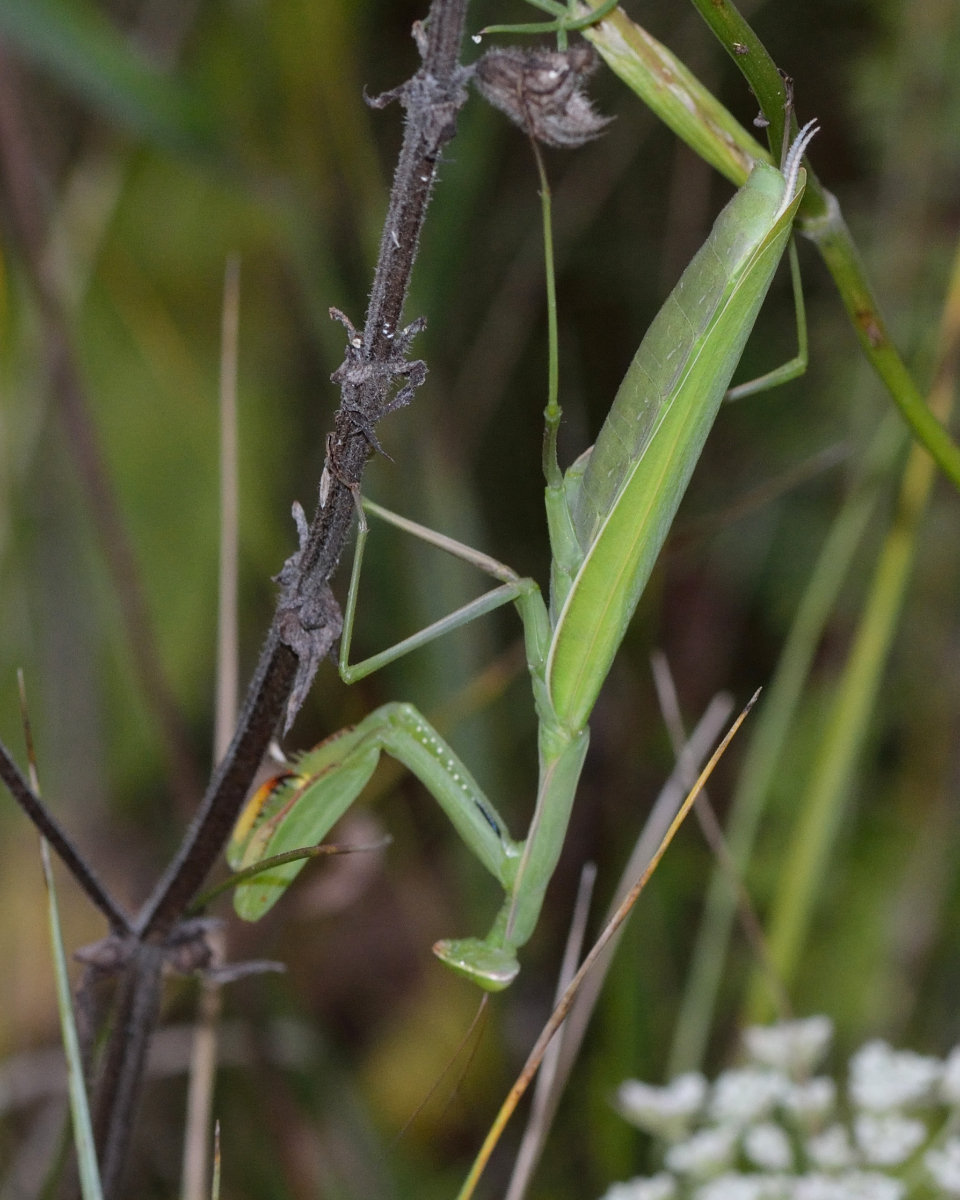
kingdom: Animalia
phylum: Arthropoda
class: Insecta
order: Mantodea
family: Mantidae
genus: Mantis
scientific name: Mantis religiosa
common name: Praying mantis
